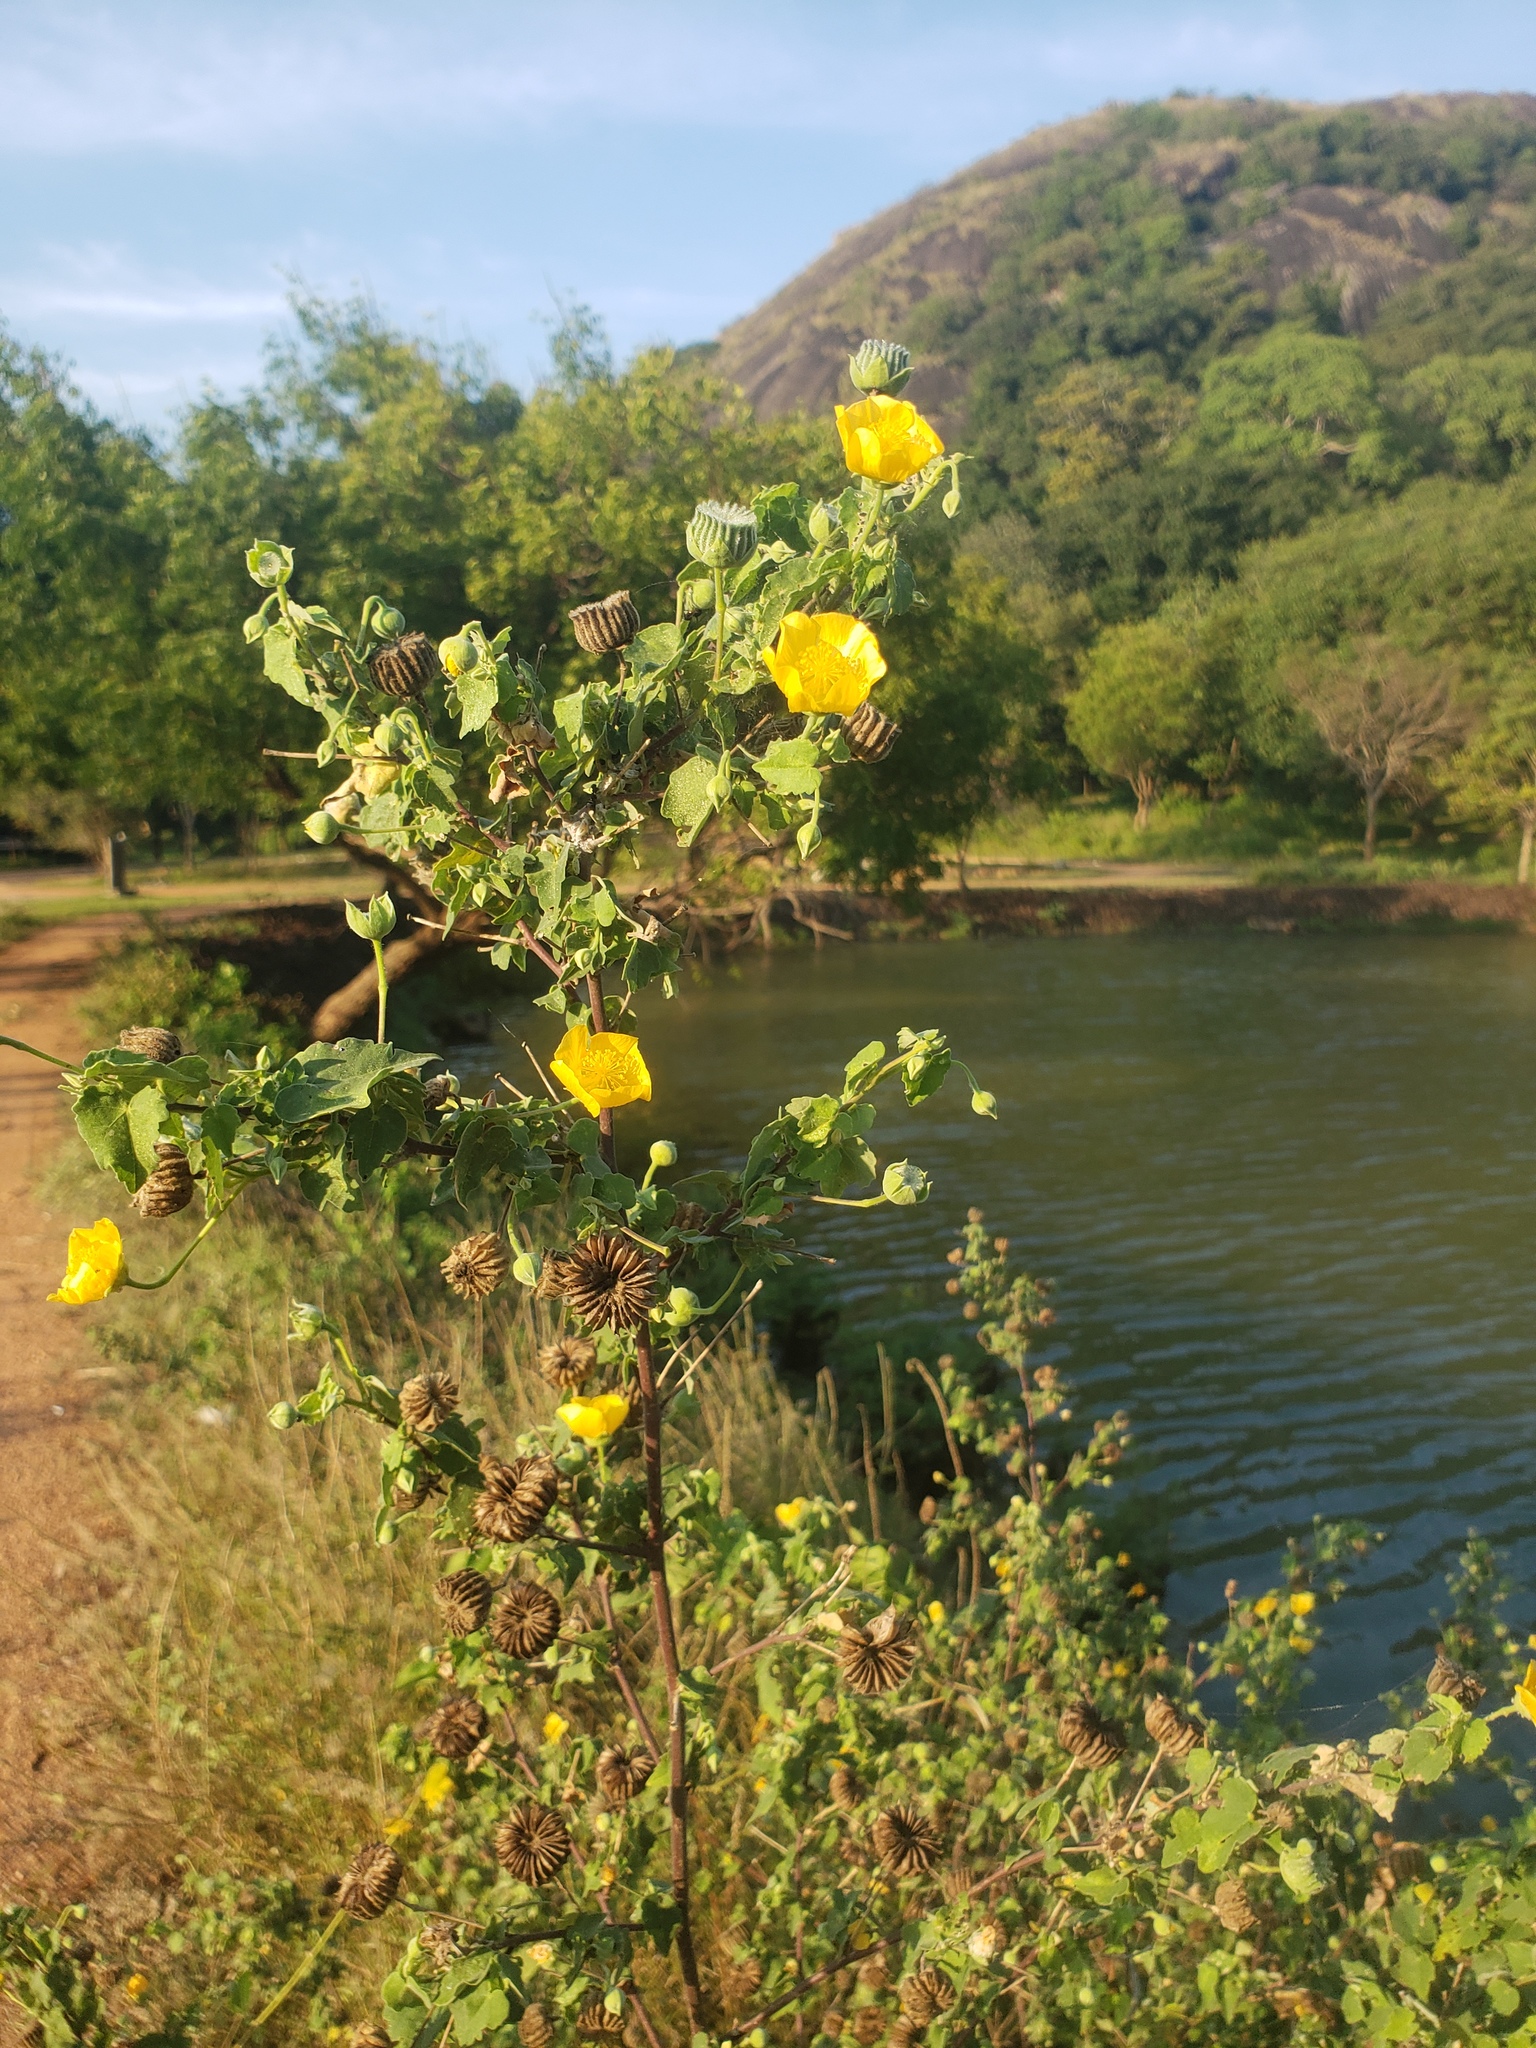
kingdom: Plantae
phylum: Tracheophyta
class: Magnoliopsida
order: Malvales
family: Malvaceae
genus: Abutilon
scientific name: Abutilon indicum
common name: Indian abutilon
